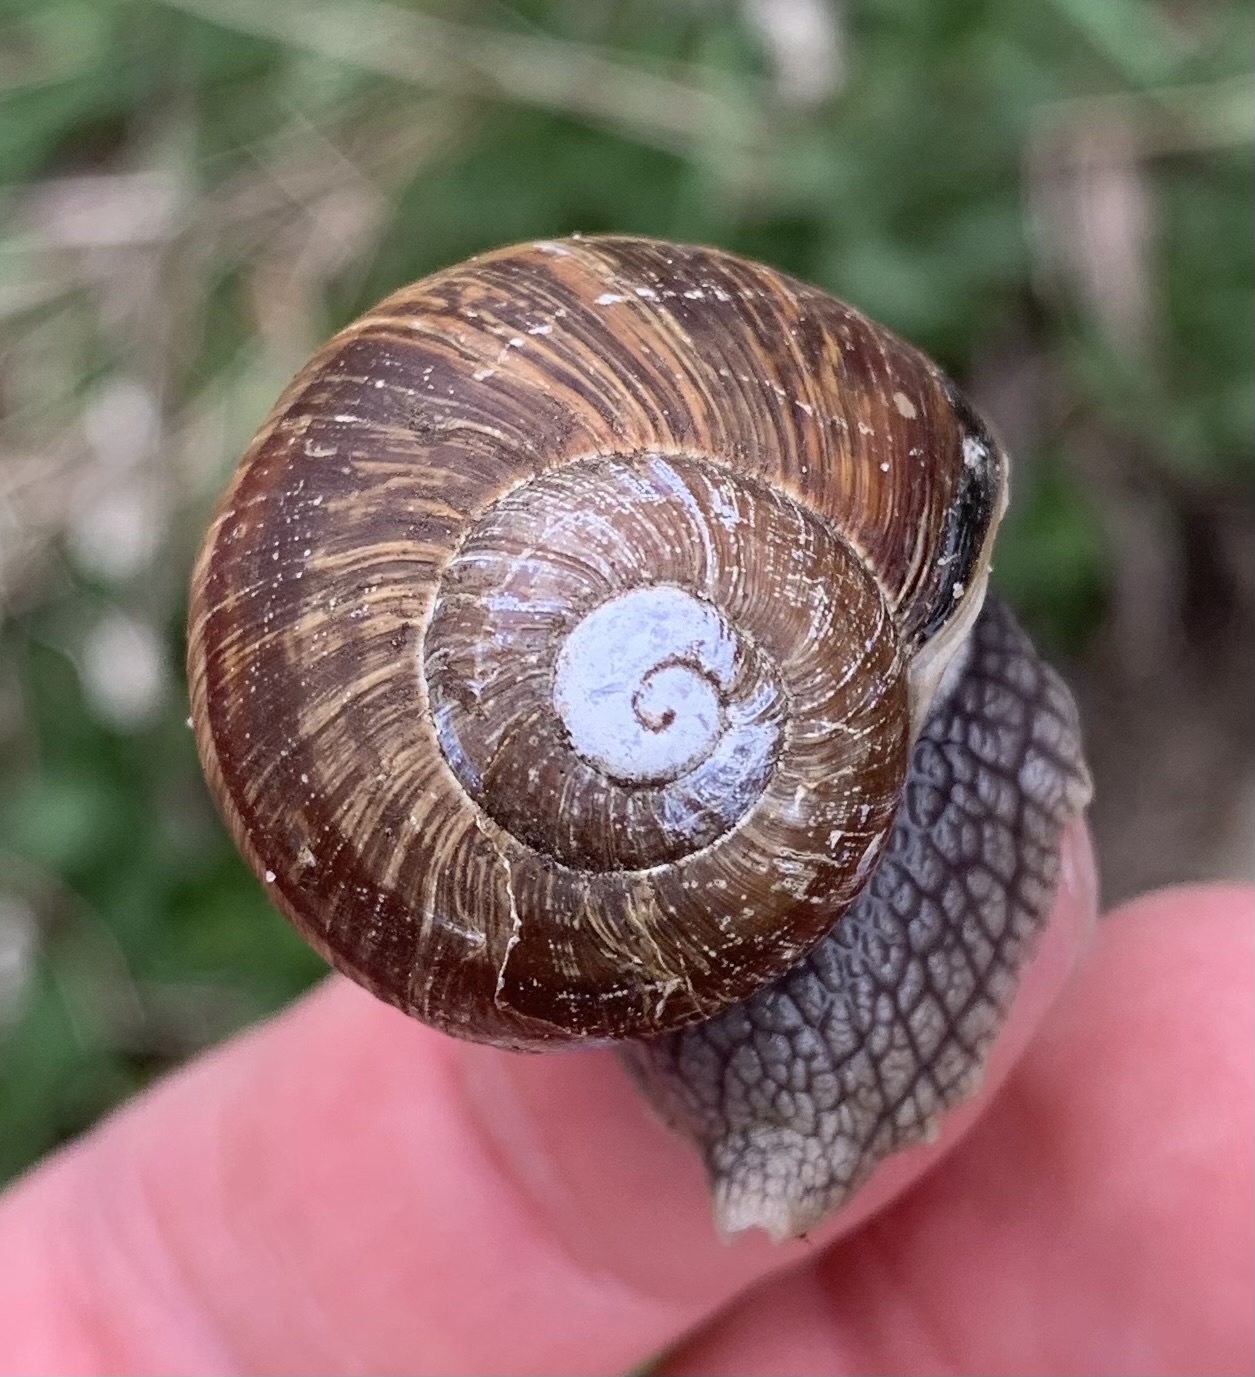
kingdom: Animalia
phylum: Mollusca
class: Gastropoda
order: Stylommatophora
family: Helicidae
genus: Helix
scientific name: Helix pomatia
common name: Roman snail
